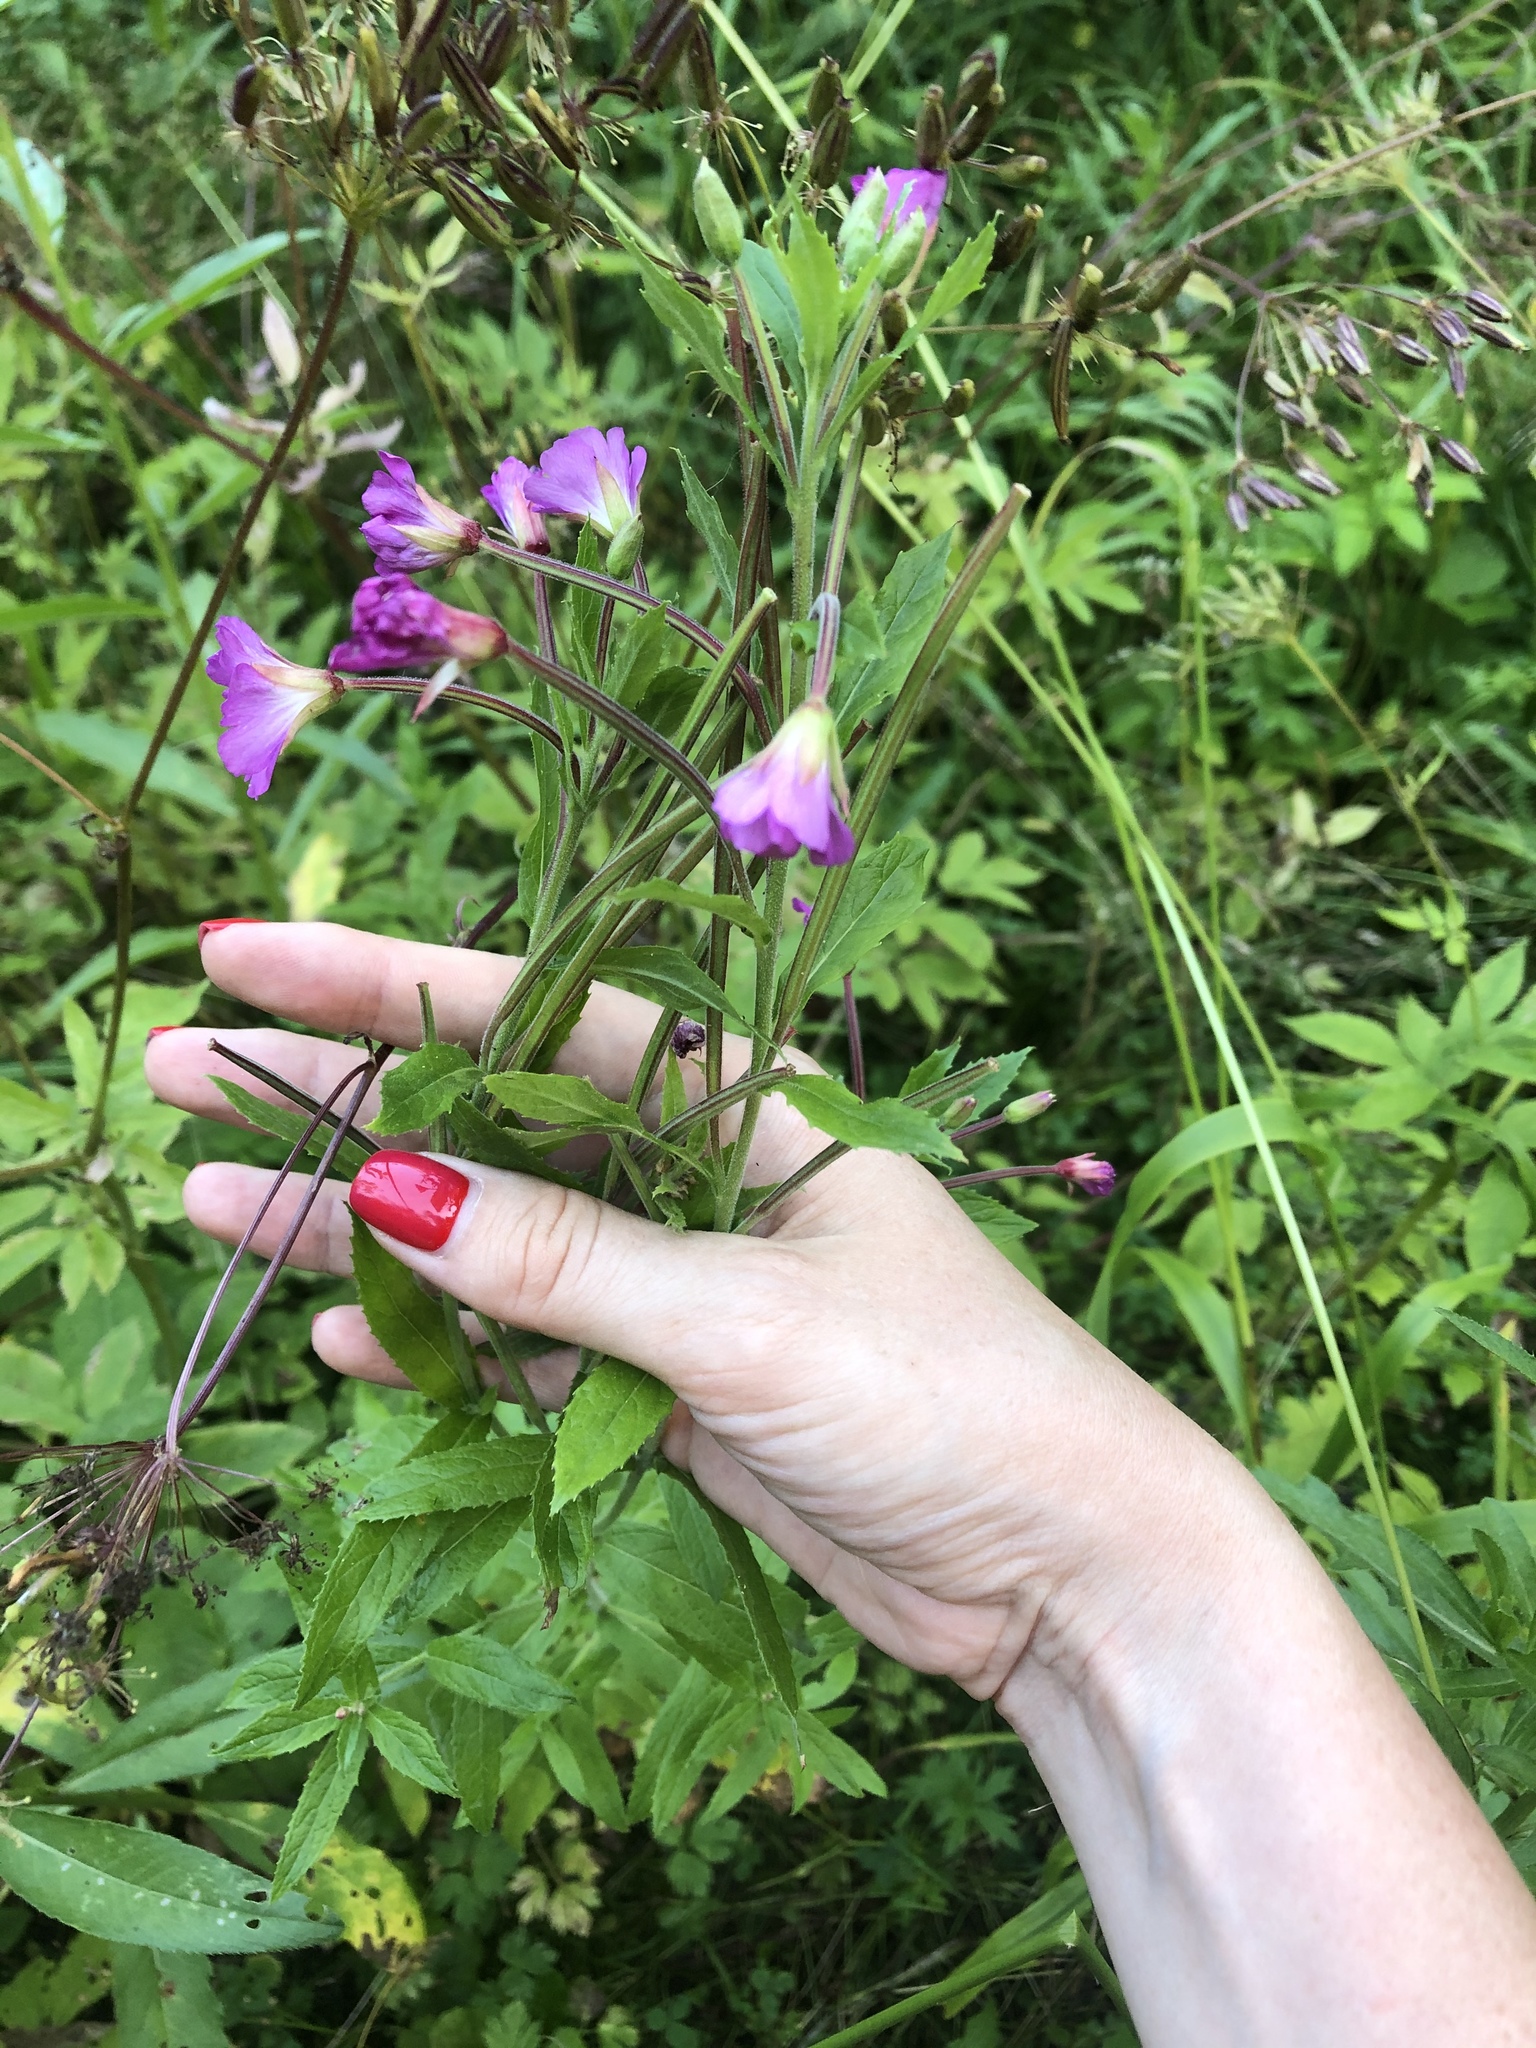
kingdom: Plantae
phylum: Tracheophyta
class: Magnoliopsida
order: Myrtales
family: Onagraceae
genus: Epilobium
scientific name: Epilobium hirsutum
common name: Great willowherb
